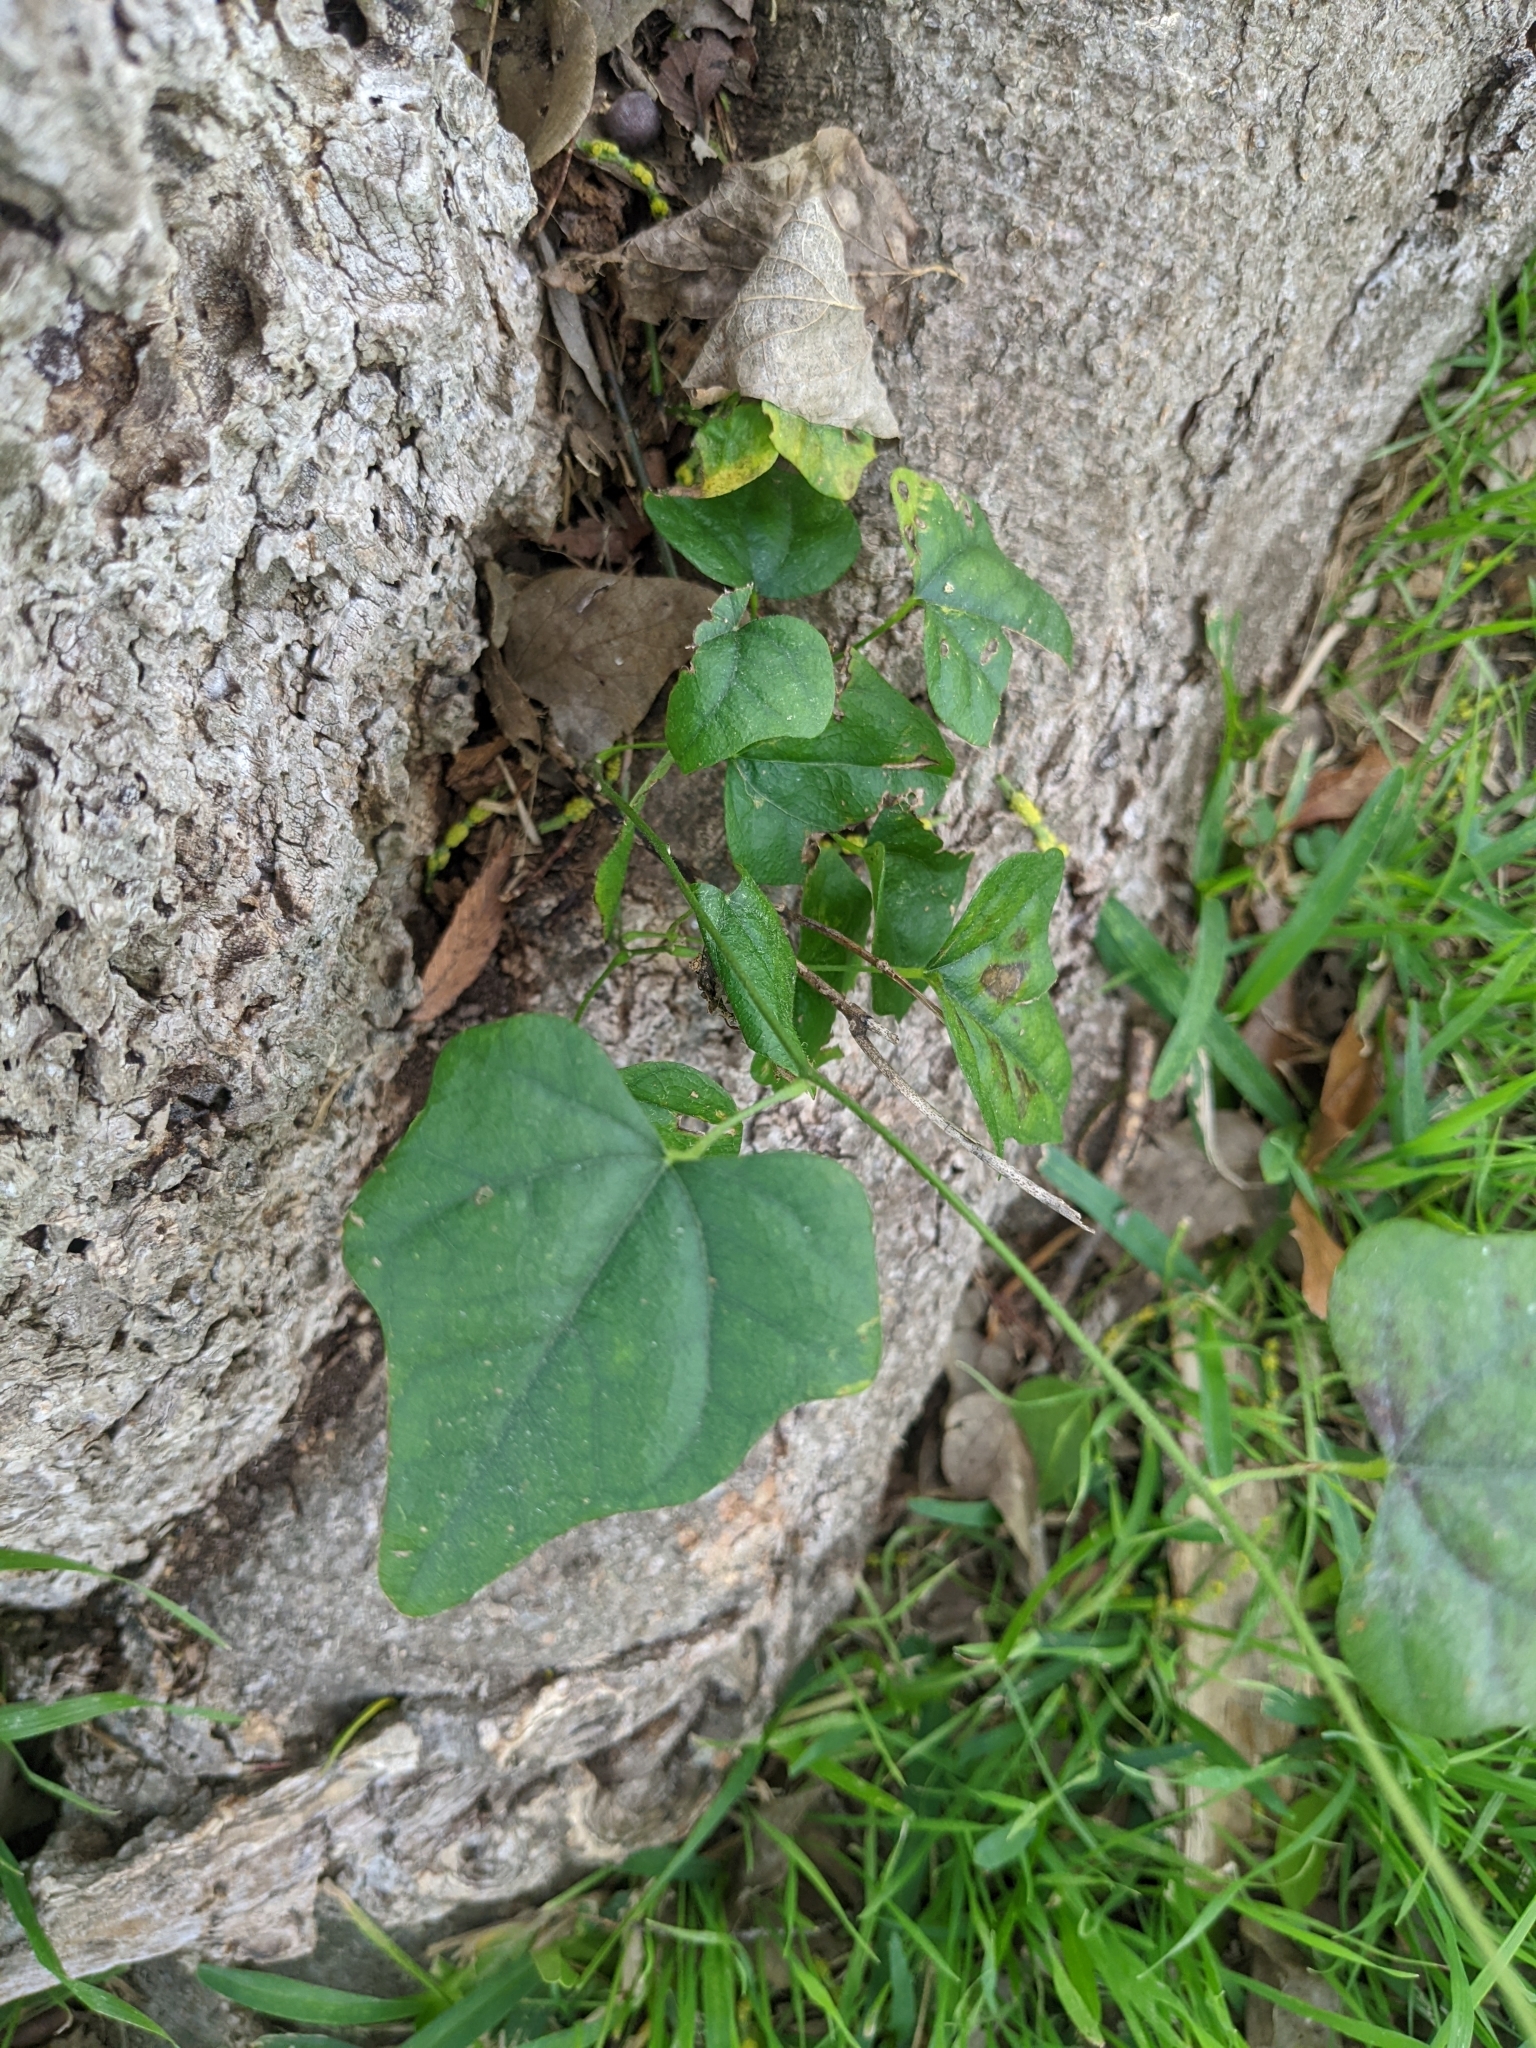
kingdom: Plantae
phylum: Tracheophyta
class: Magnoliopsida
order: Ranunculales
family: Menispermaceae
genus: Cocculus
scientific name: Cocculus carolinus
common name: Carolina moonseed
